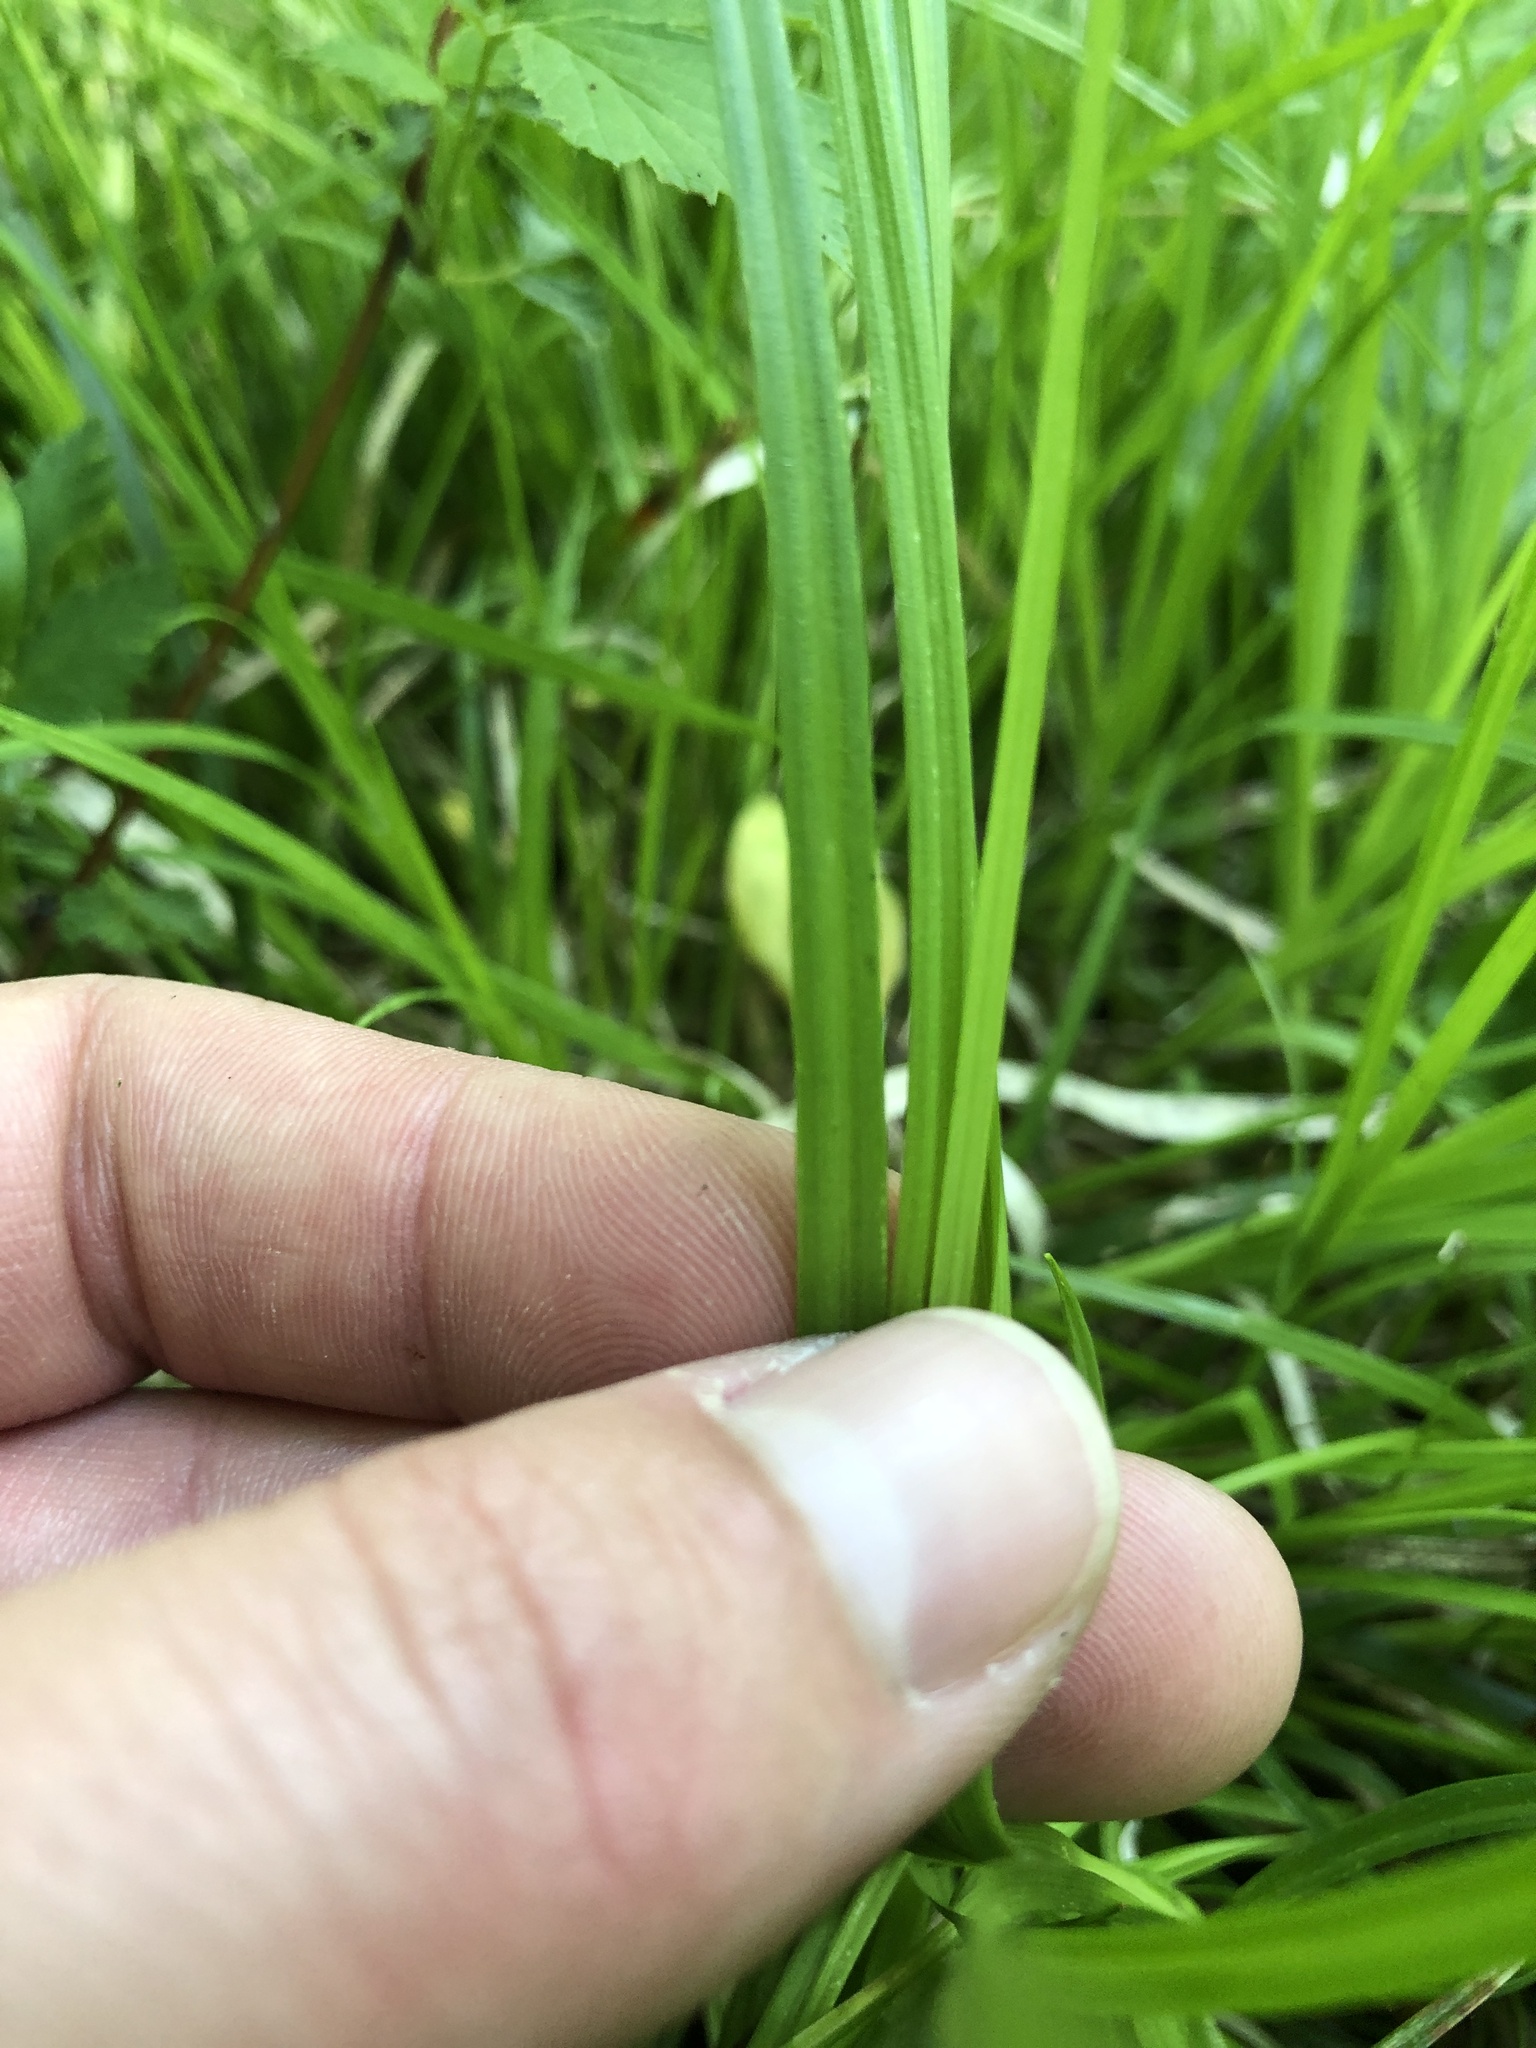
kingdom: Plantae
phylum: Tracheophyta
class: Liliopsida
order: Poales
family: Cyperaceae
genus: Carex
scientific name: Carex communis
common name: Colonial oak sedge
